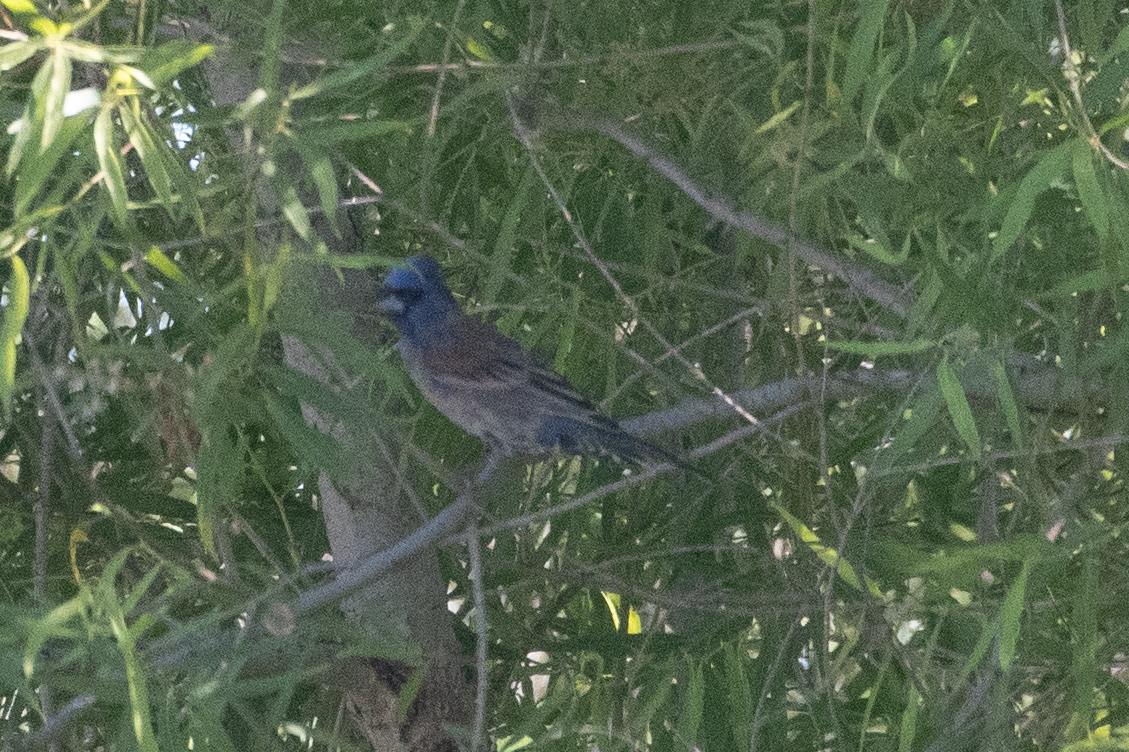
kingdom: Animalia
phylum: Chordata
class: Aves
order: Passeriformes
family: Cardinalidae
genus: Passerina
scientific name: Passerina caerulea
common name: Blue grosbeak
